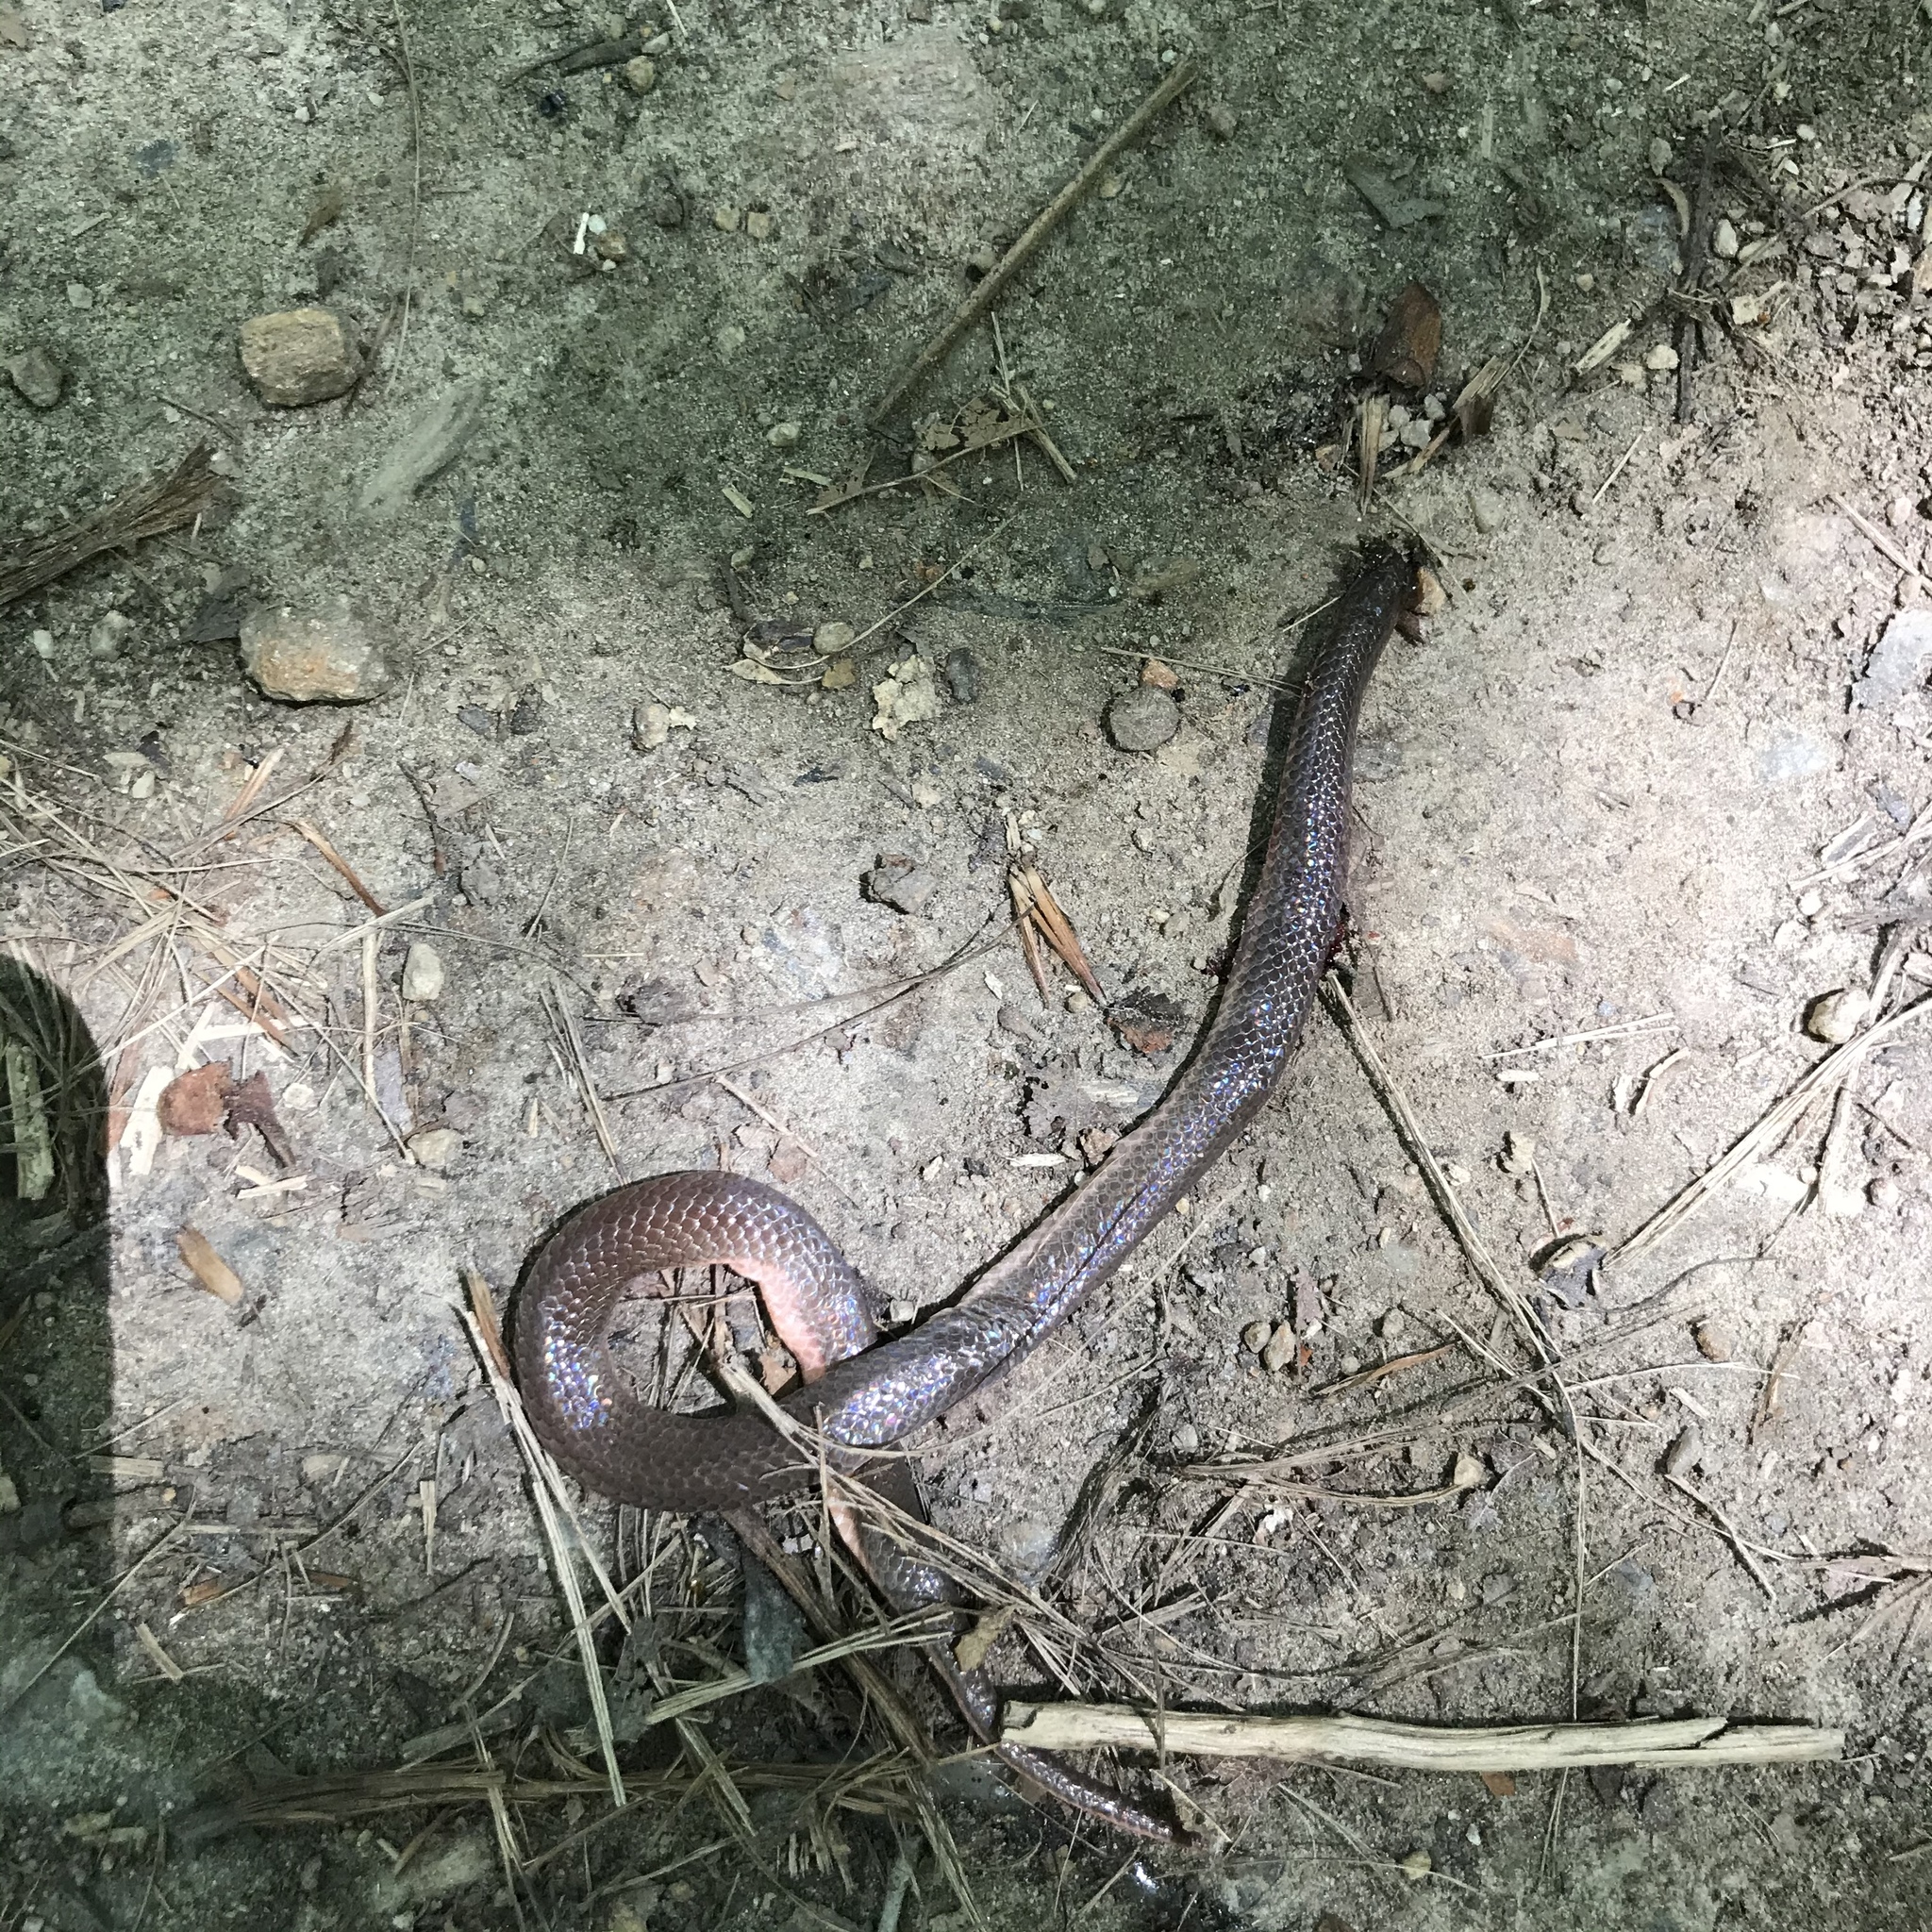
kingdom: Animalia
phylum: Chordata
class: Squamata
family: Colubridae
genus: Carphophis
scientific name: Carphophis amoenus
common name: Eastern worm snake
